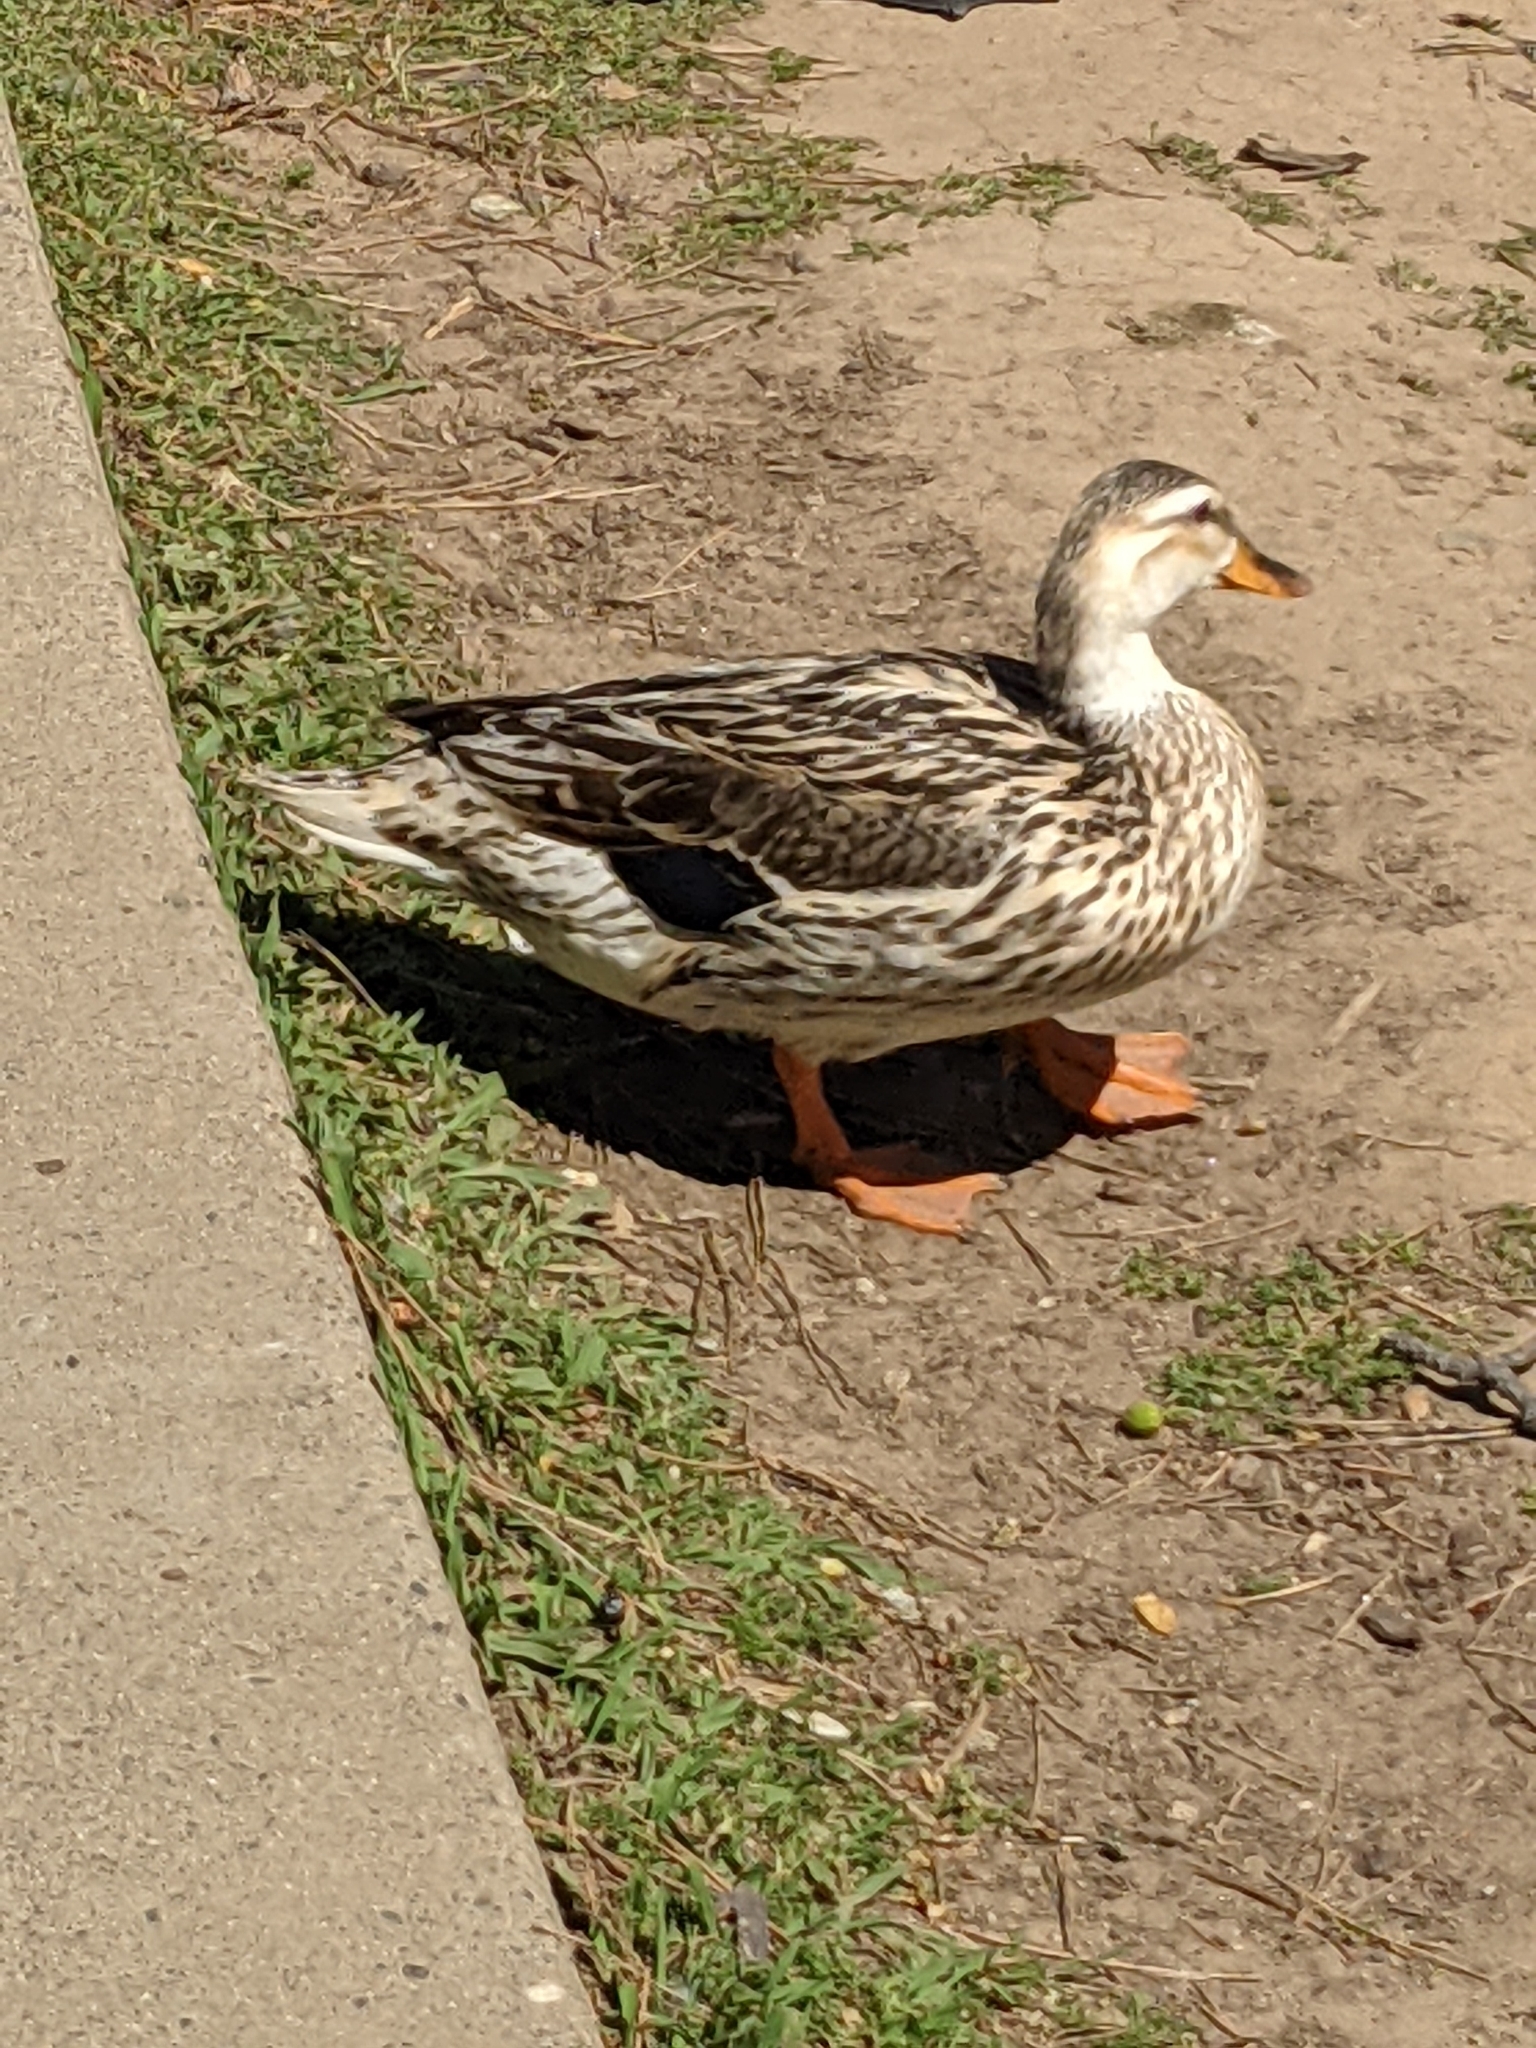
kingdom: Animalia
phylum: Chordata
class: Aves
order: Anseriformes
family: Anatidae
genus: Anas
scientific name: Anas platyrhynchos
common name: Mallard
